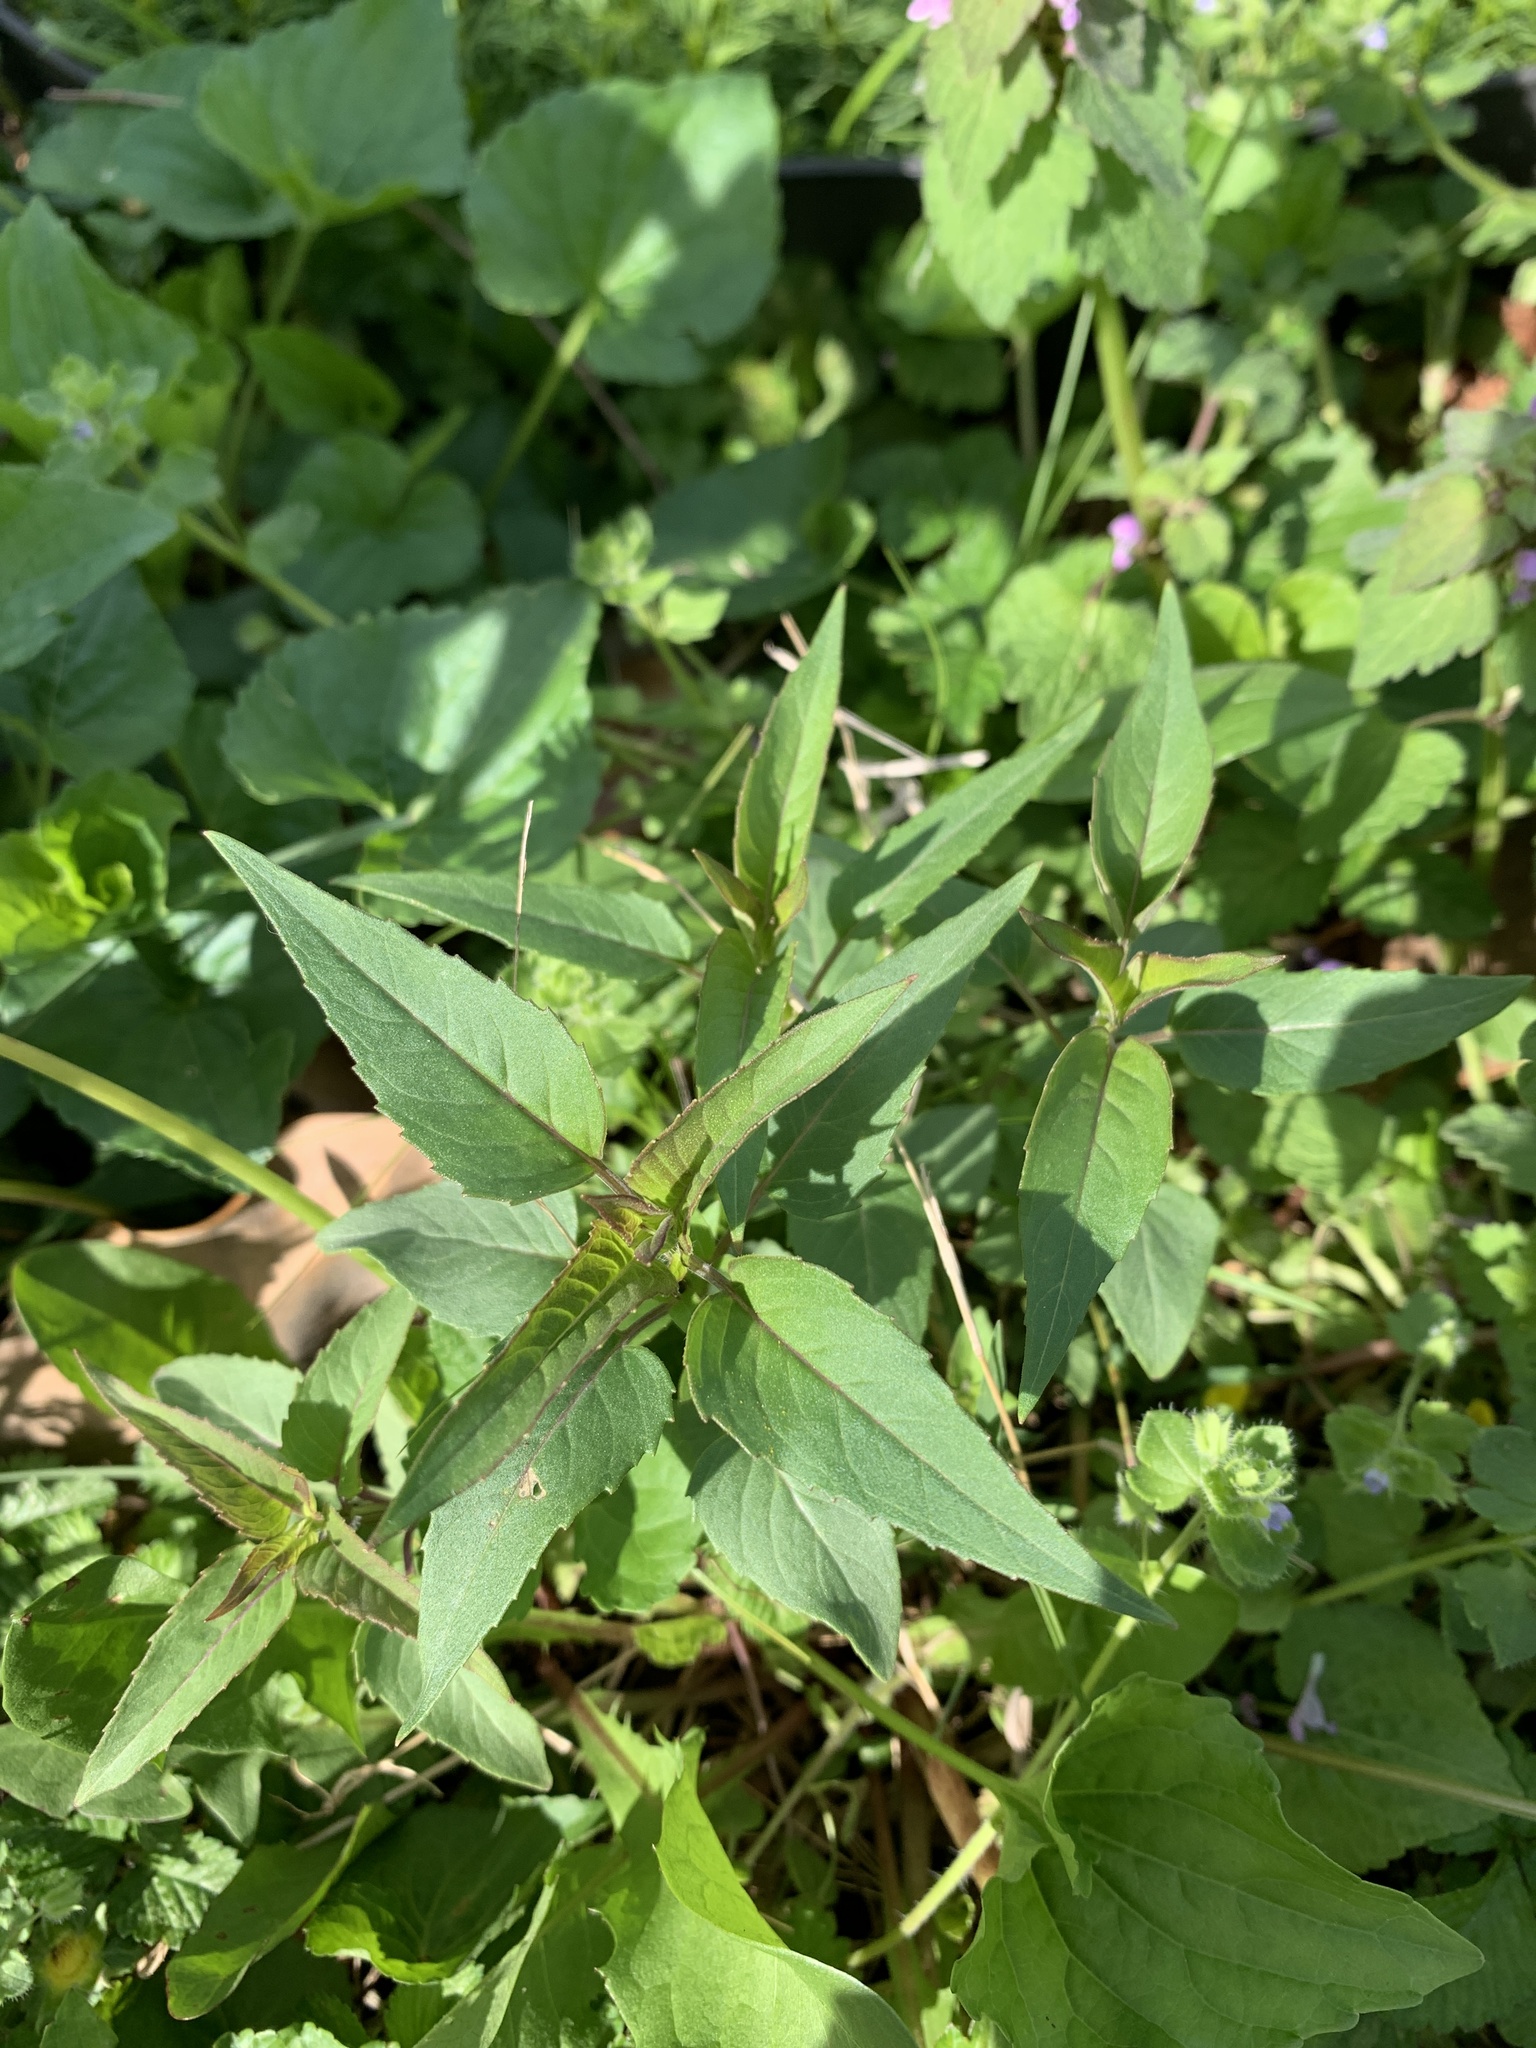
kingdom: Plantae
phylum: Tracheophyta
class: Magnoliopsida
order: Lamiales
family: Lamiaceae
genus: Monarda
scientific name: Monarda fistulosa
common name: Purple beebalm
